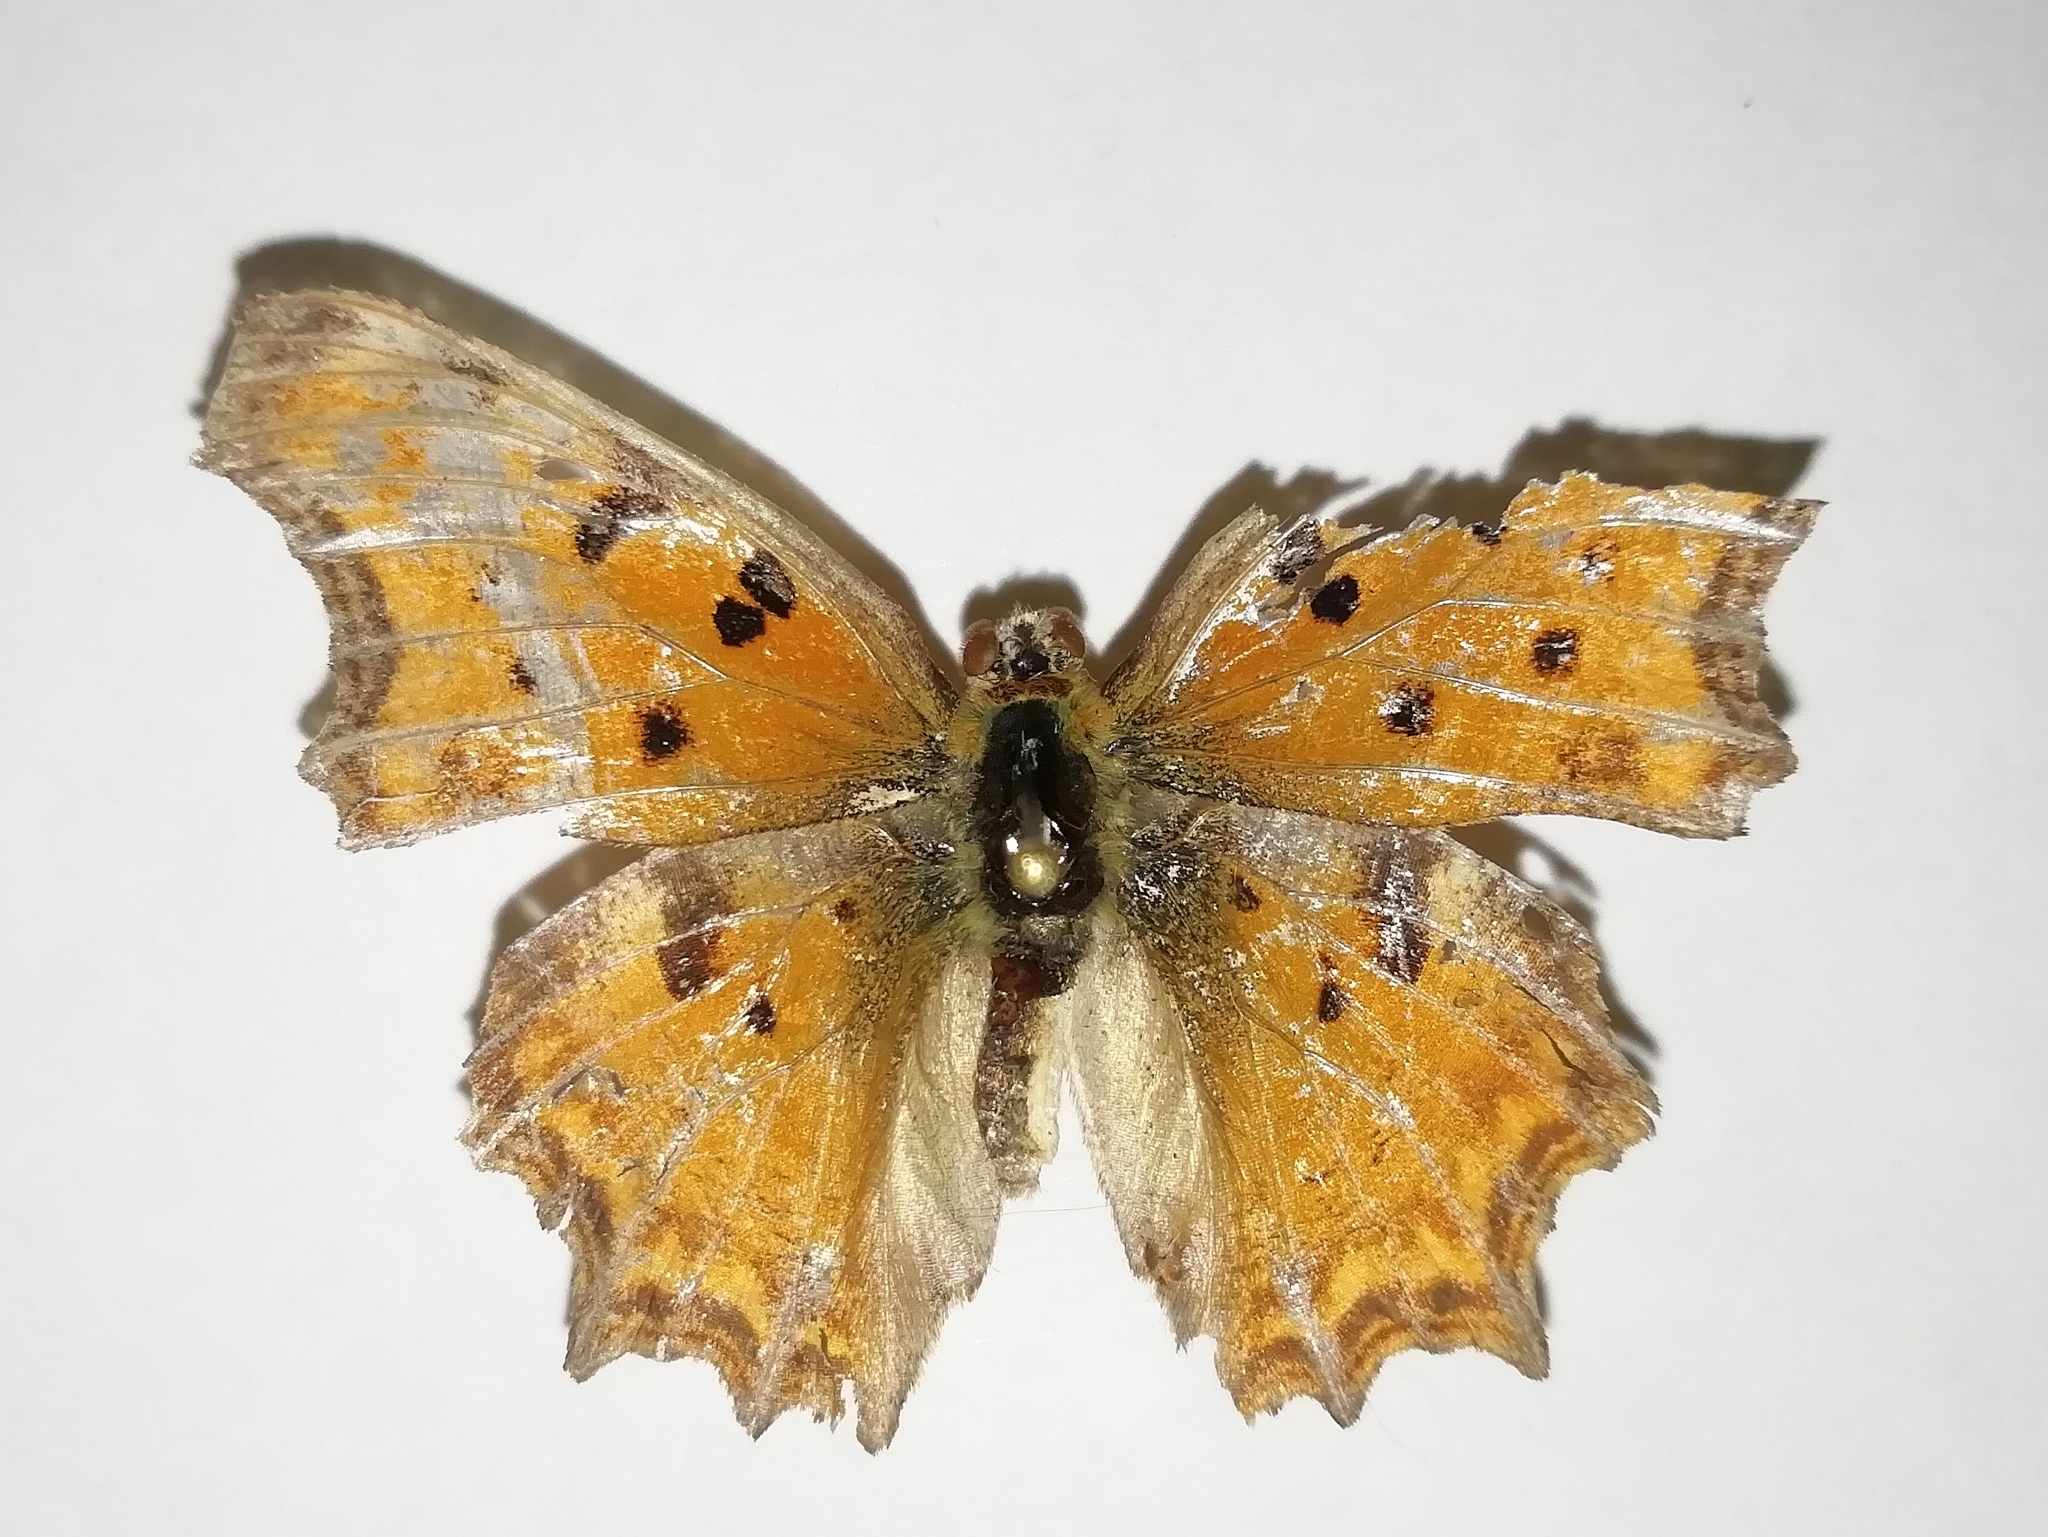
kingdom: Animalia
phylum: Arthropoda
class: Insecta
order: Lepidoptera
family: Nymphalidae
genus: Polygonia
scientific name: Polygonia egea
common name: Southern comma
